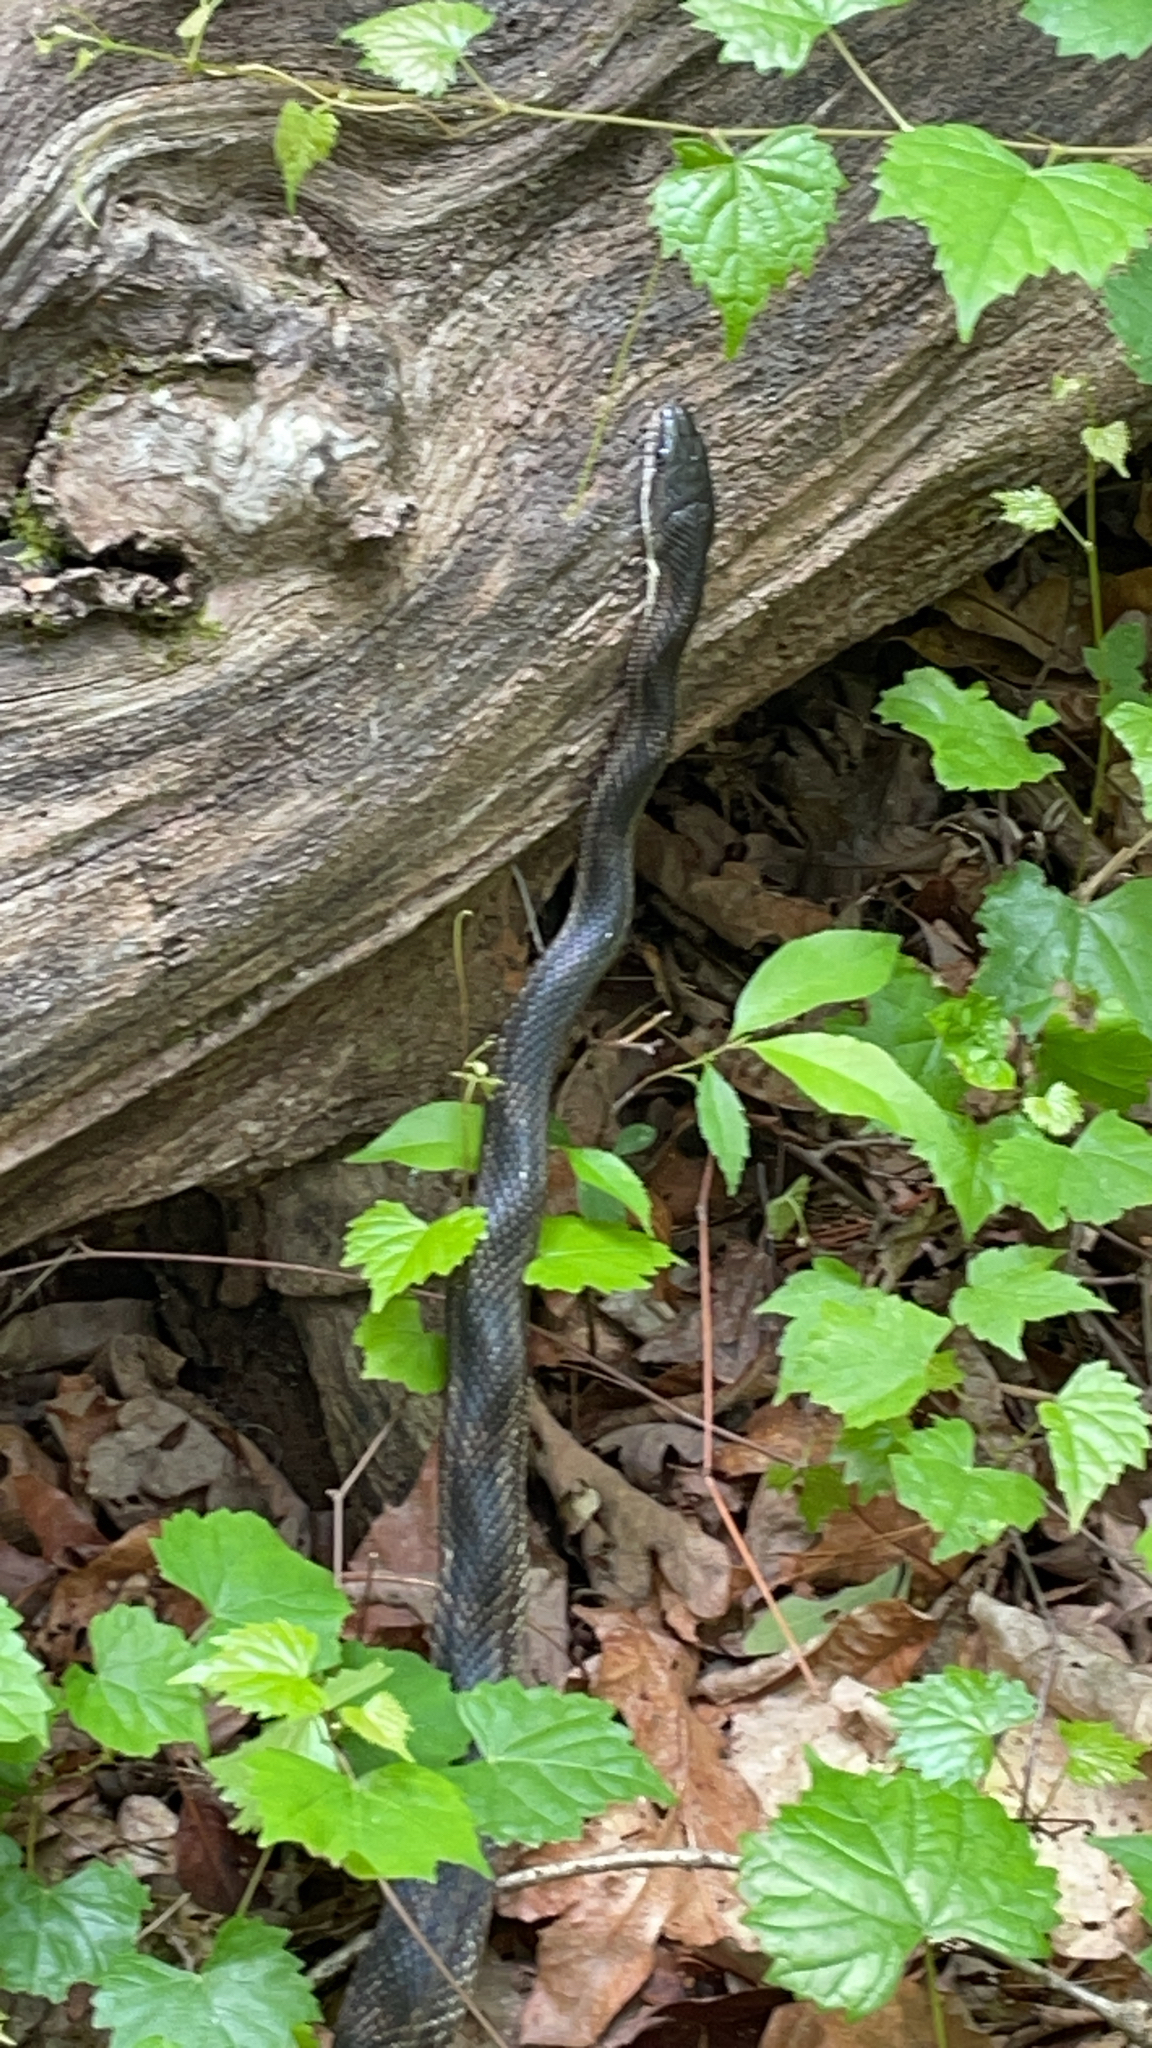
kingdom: Animalia
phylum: Chordata
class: Squamata
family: Colubridae
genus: Pantherophis
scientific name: Pantherophis spiloides
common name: Gray rat snake
